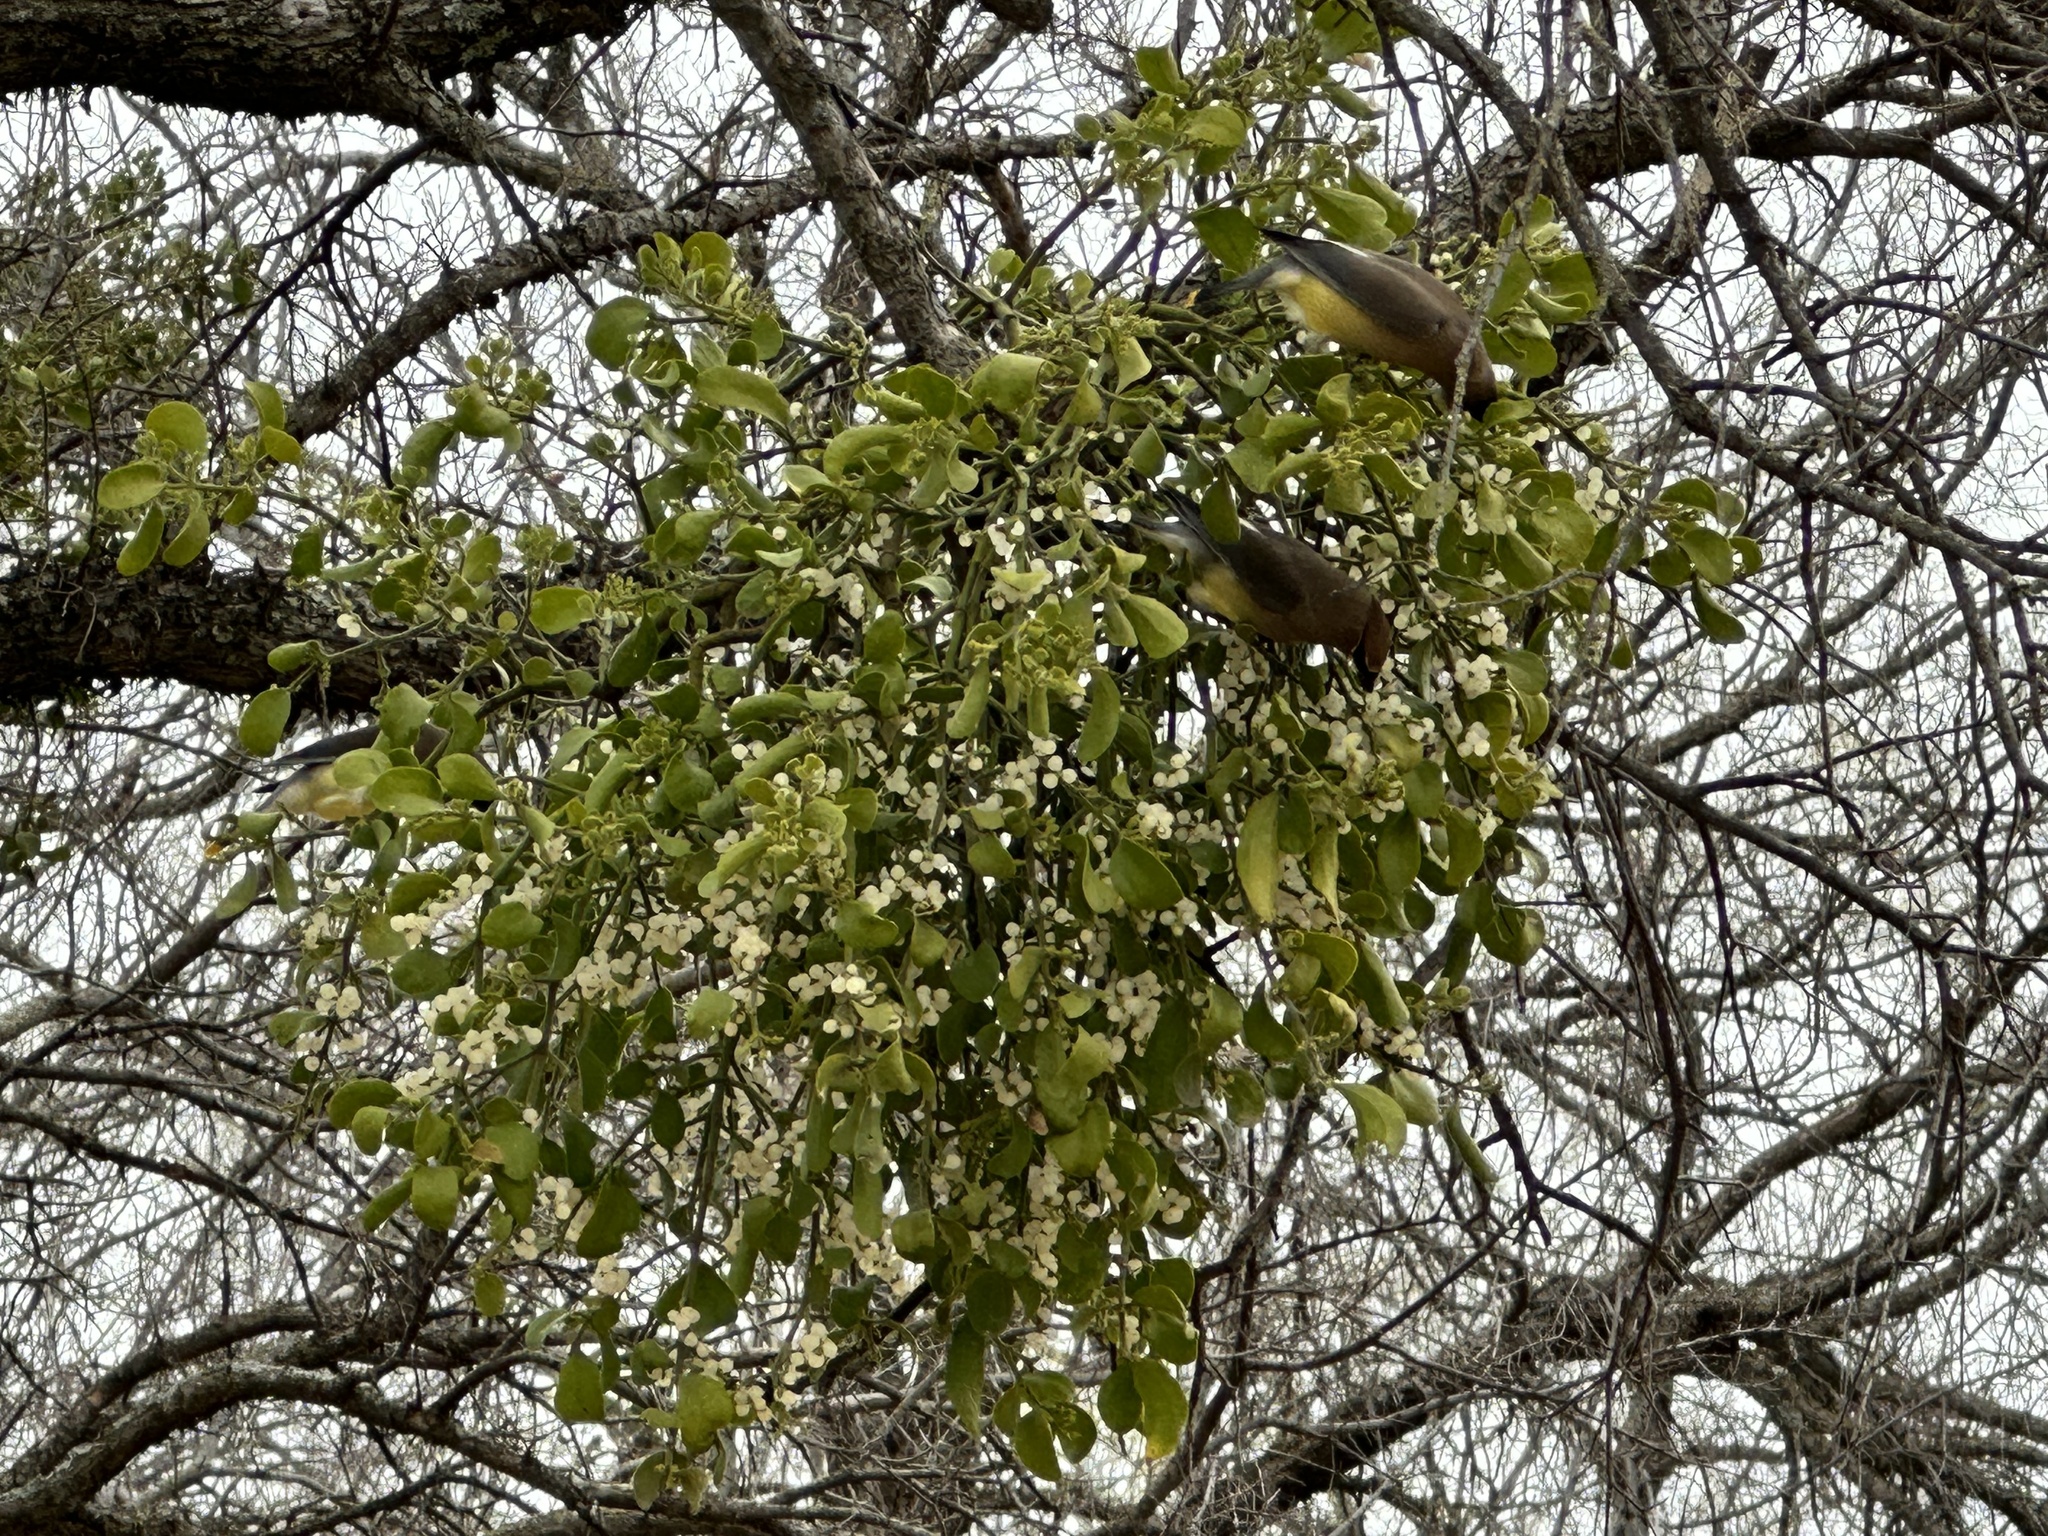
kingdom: Animalia
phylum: Chordata
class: Aves
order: Passeriformes
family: Bombycillidae
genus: Bombycilla
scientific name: Bombycilla cedrorum
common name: Cedar waxwing
